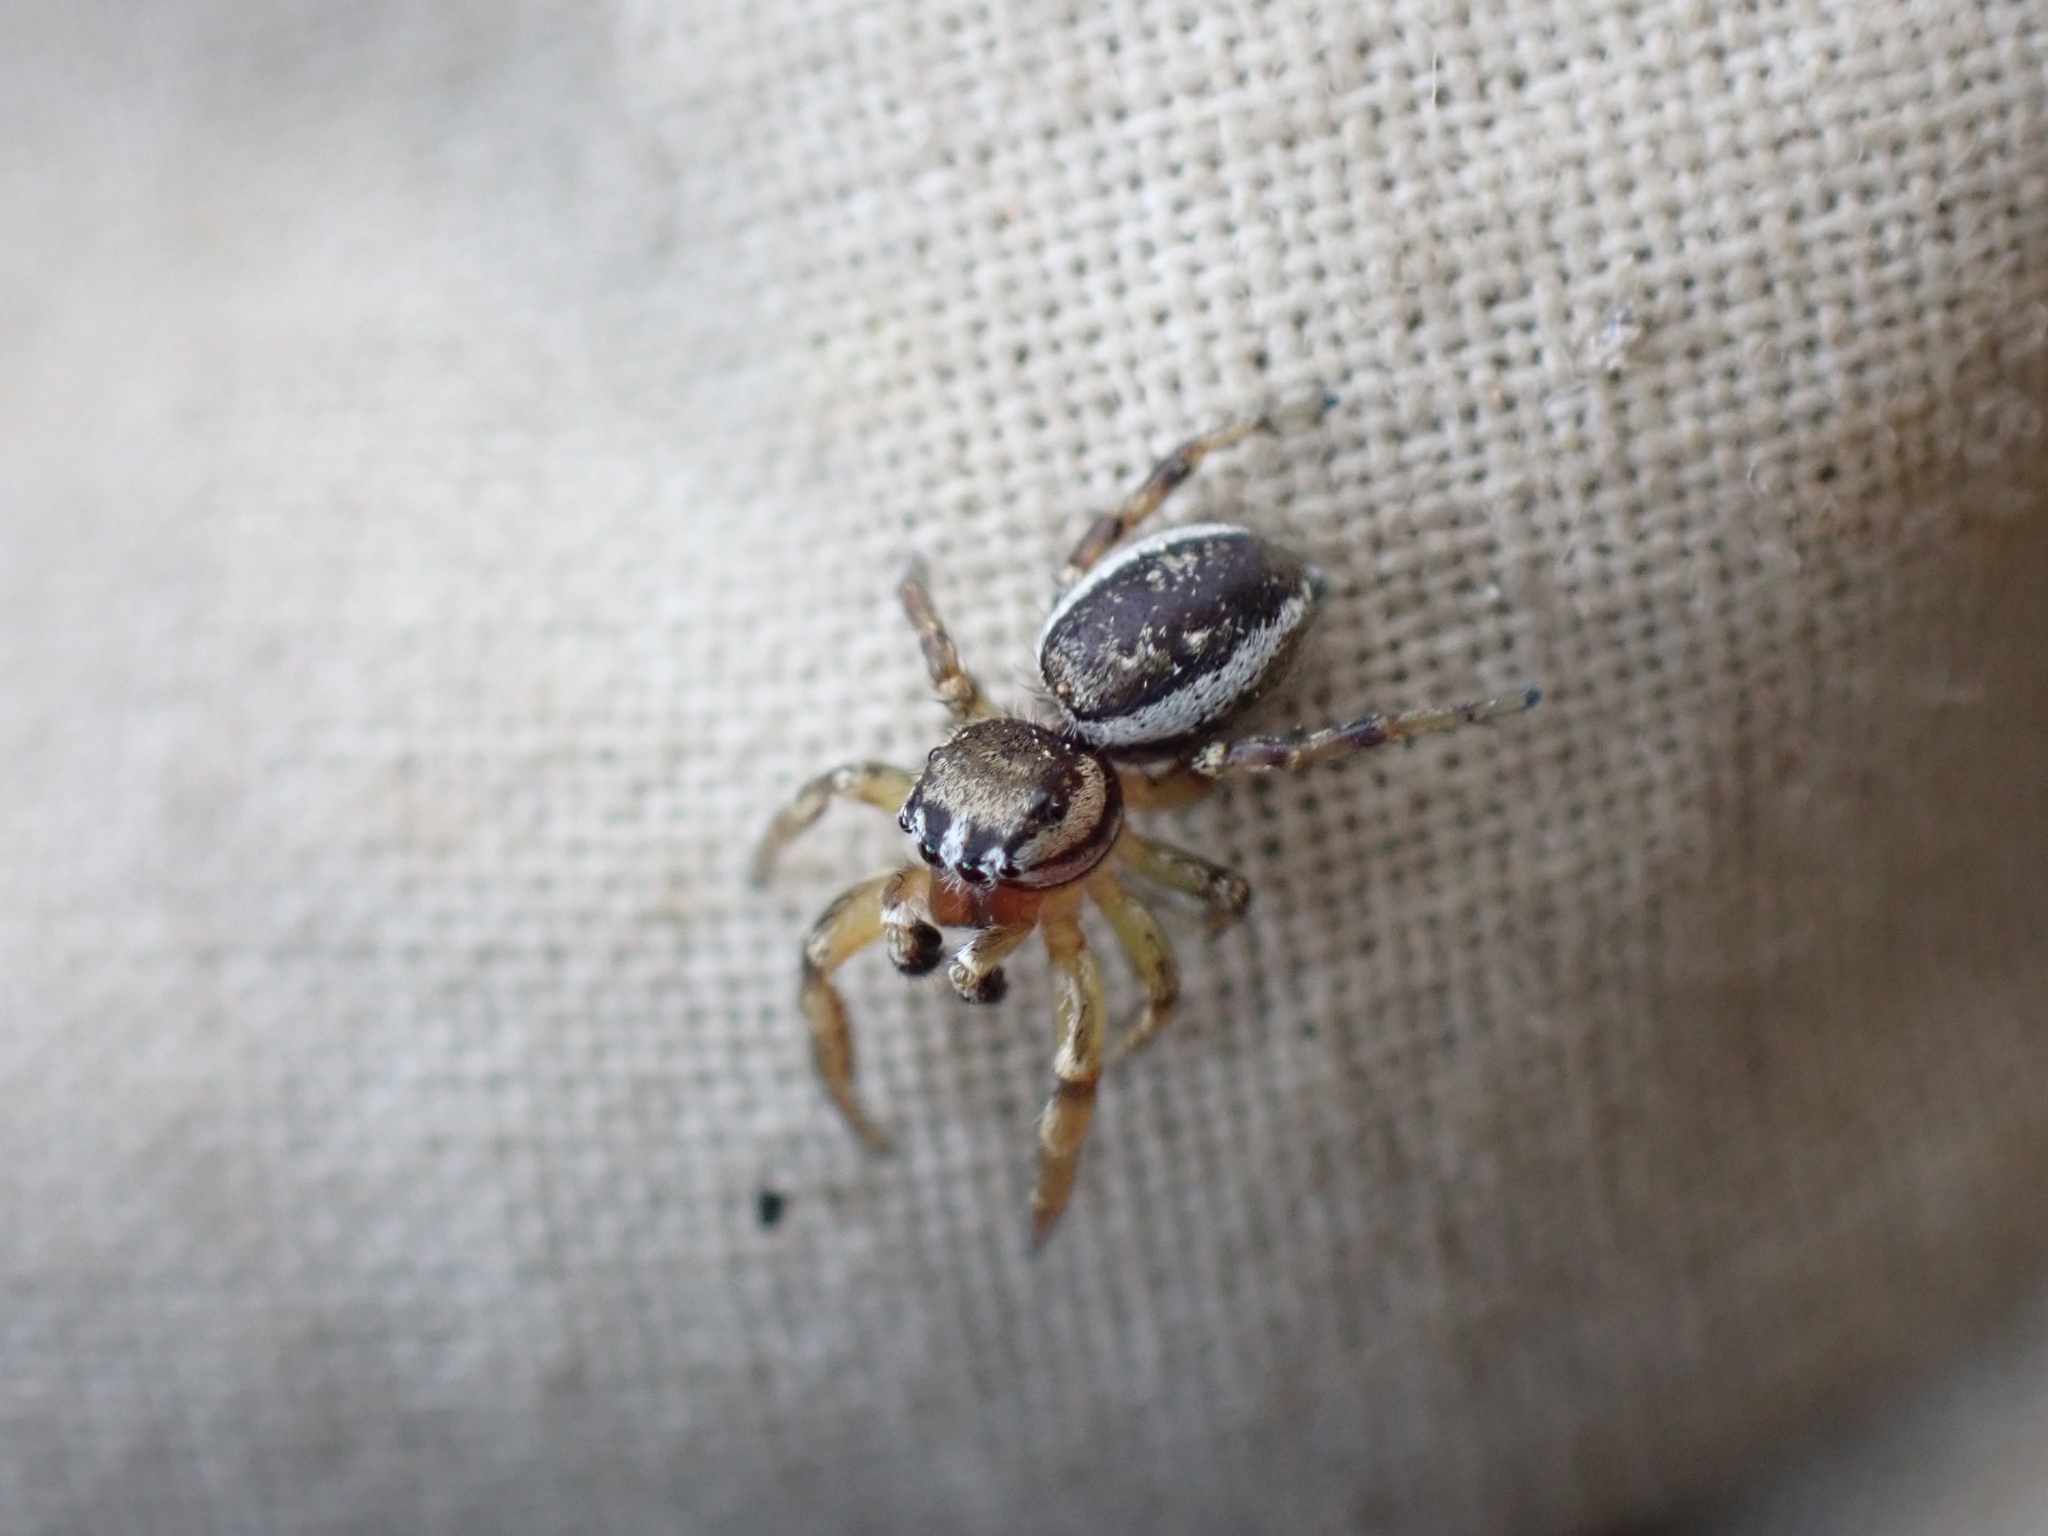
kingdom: Animalia
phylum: Arthropoda
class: Arachnida
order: Araneae
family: Salticidae
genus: Pelegrina
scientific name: Pelegrina flavipes
